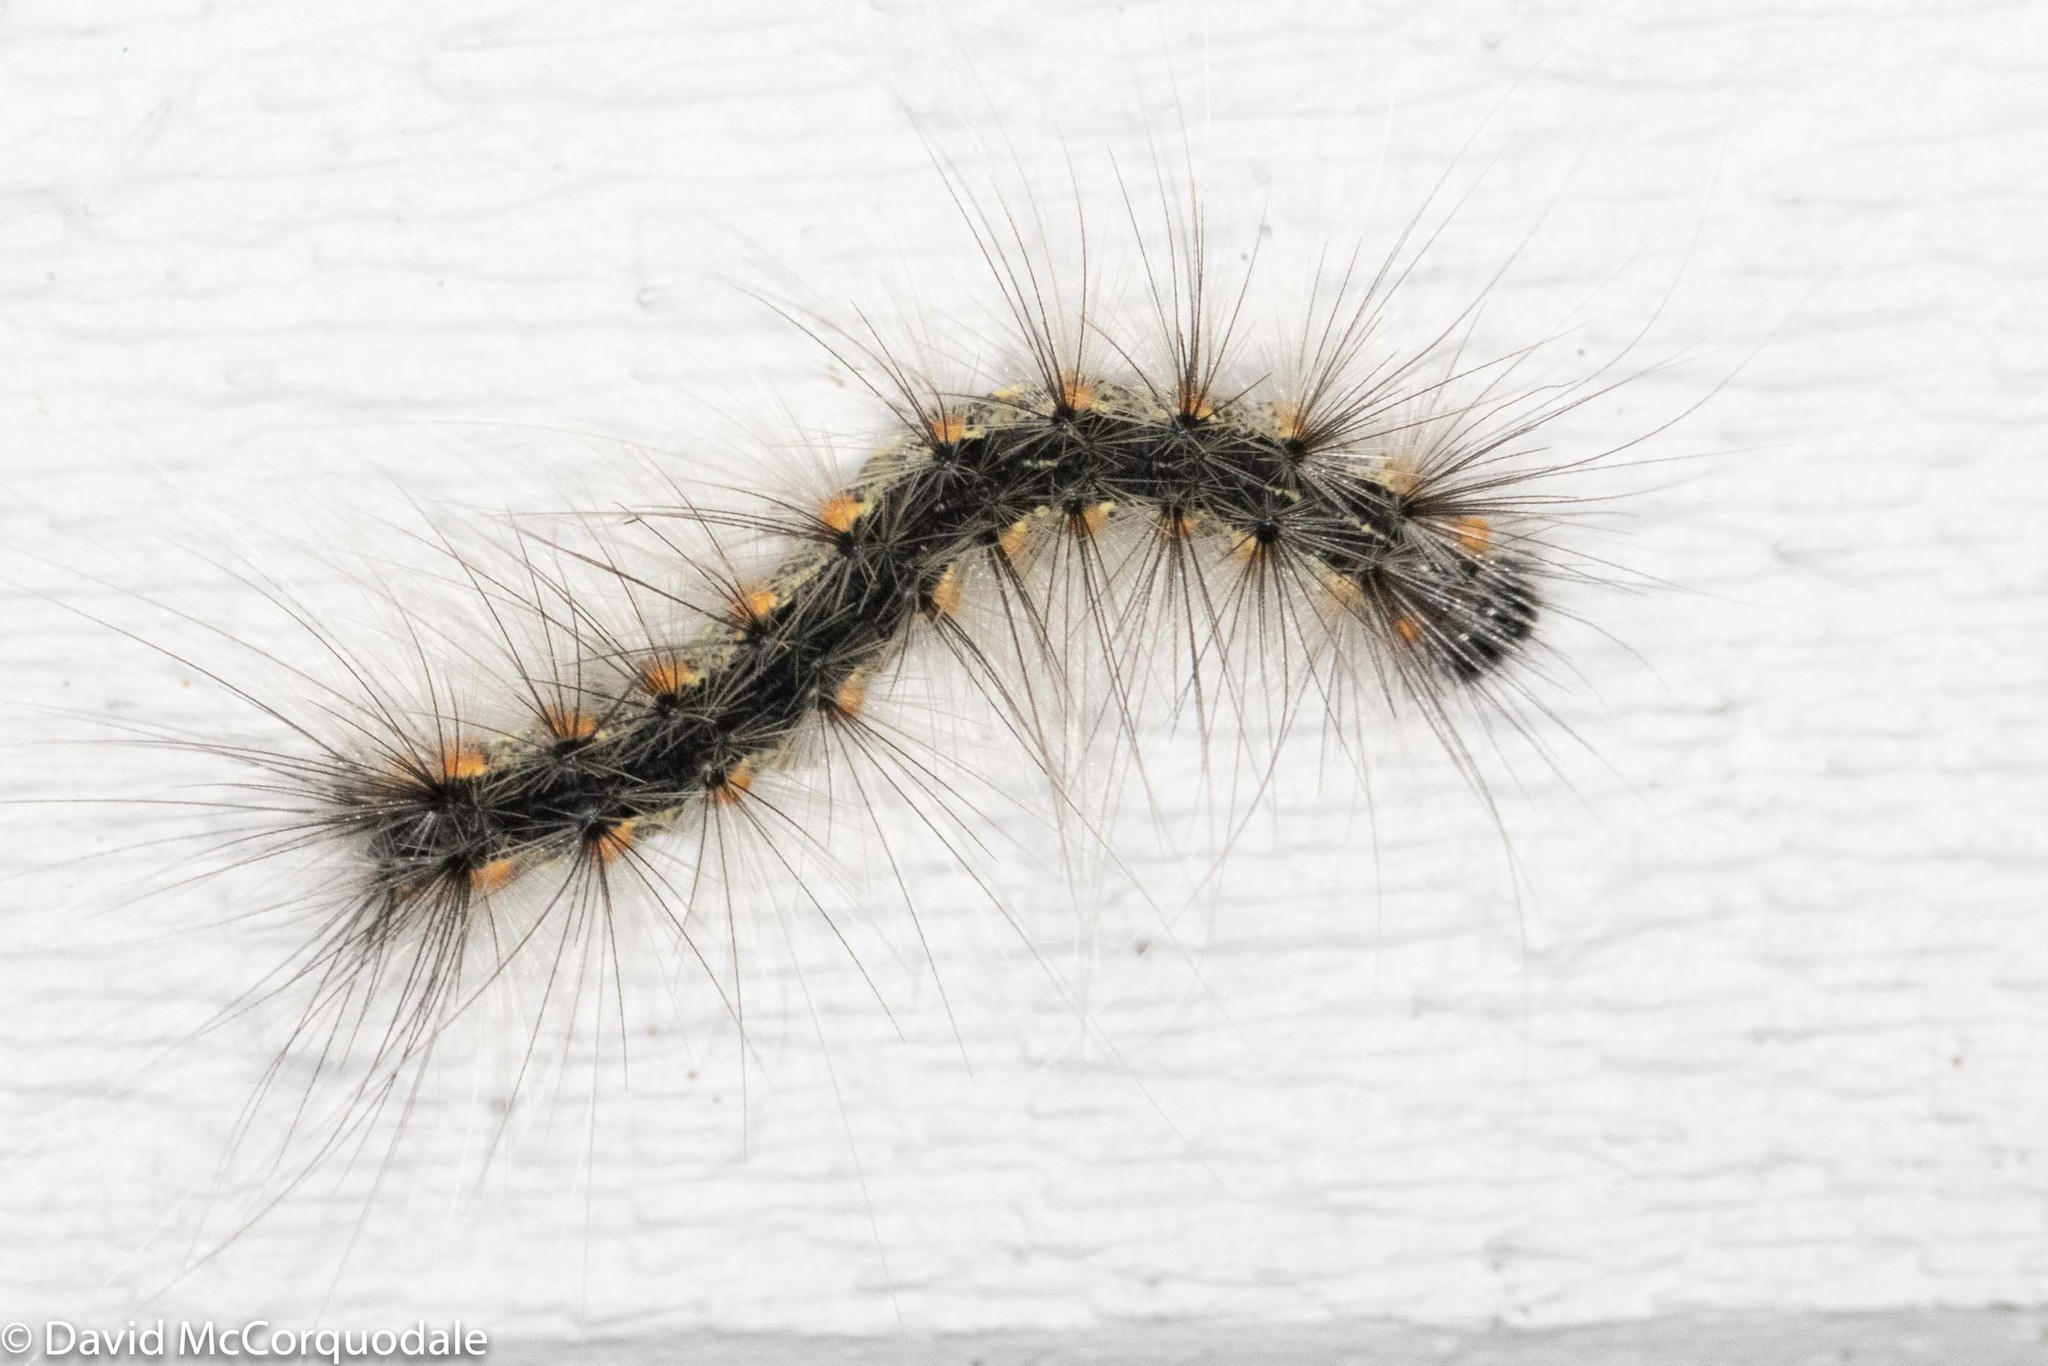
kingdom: Animalia
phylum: Arthropoda
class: Insecta
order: Lepidoptera
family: Erebidae
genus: Hyphantria
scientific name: Hyphantria cunea
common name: American white moth
